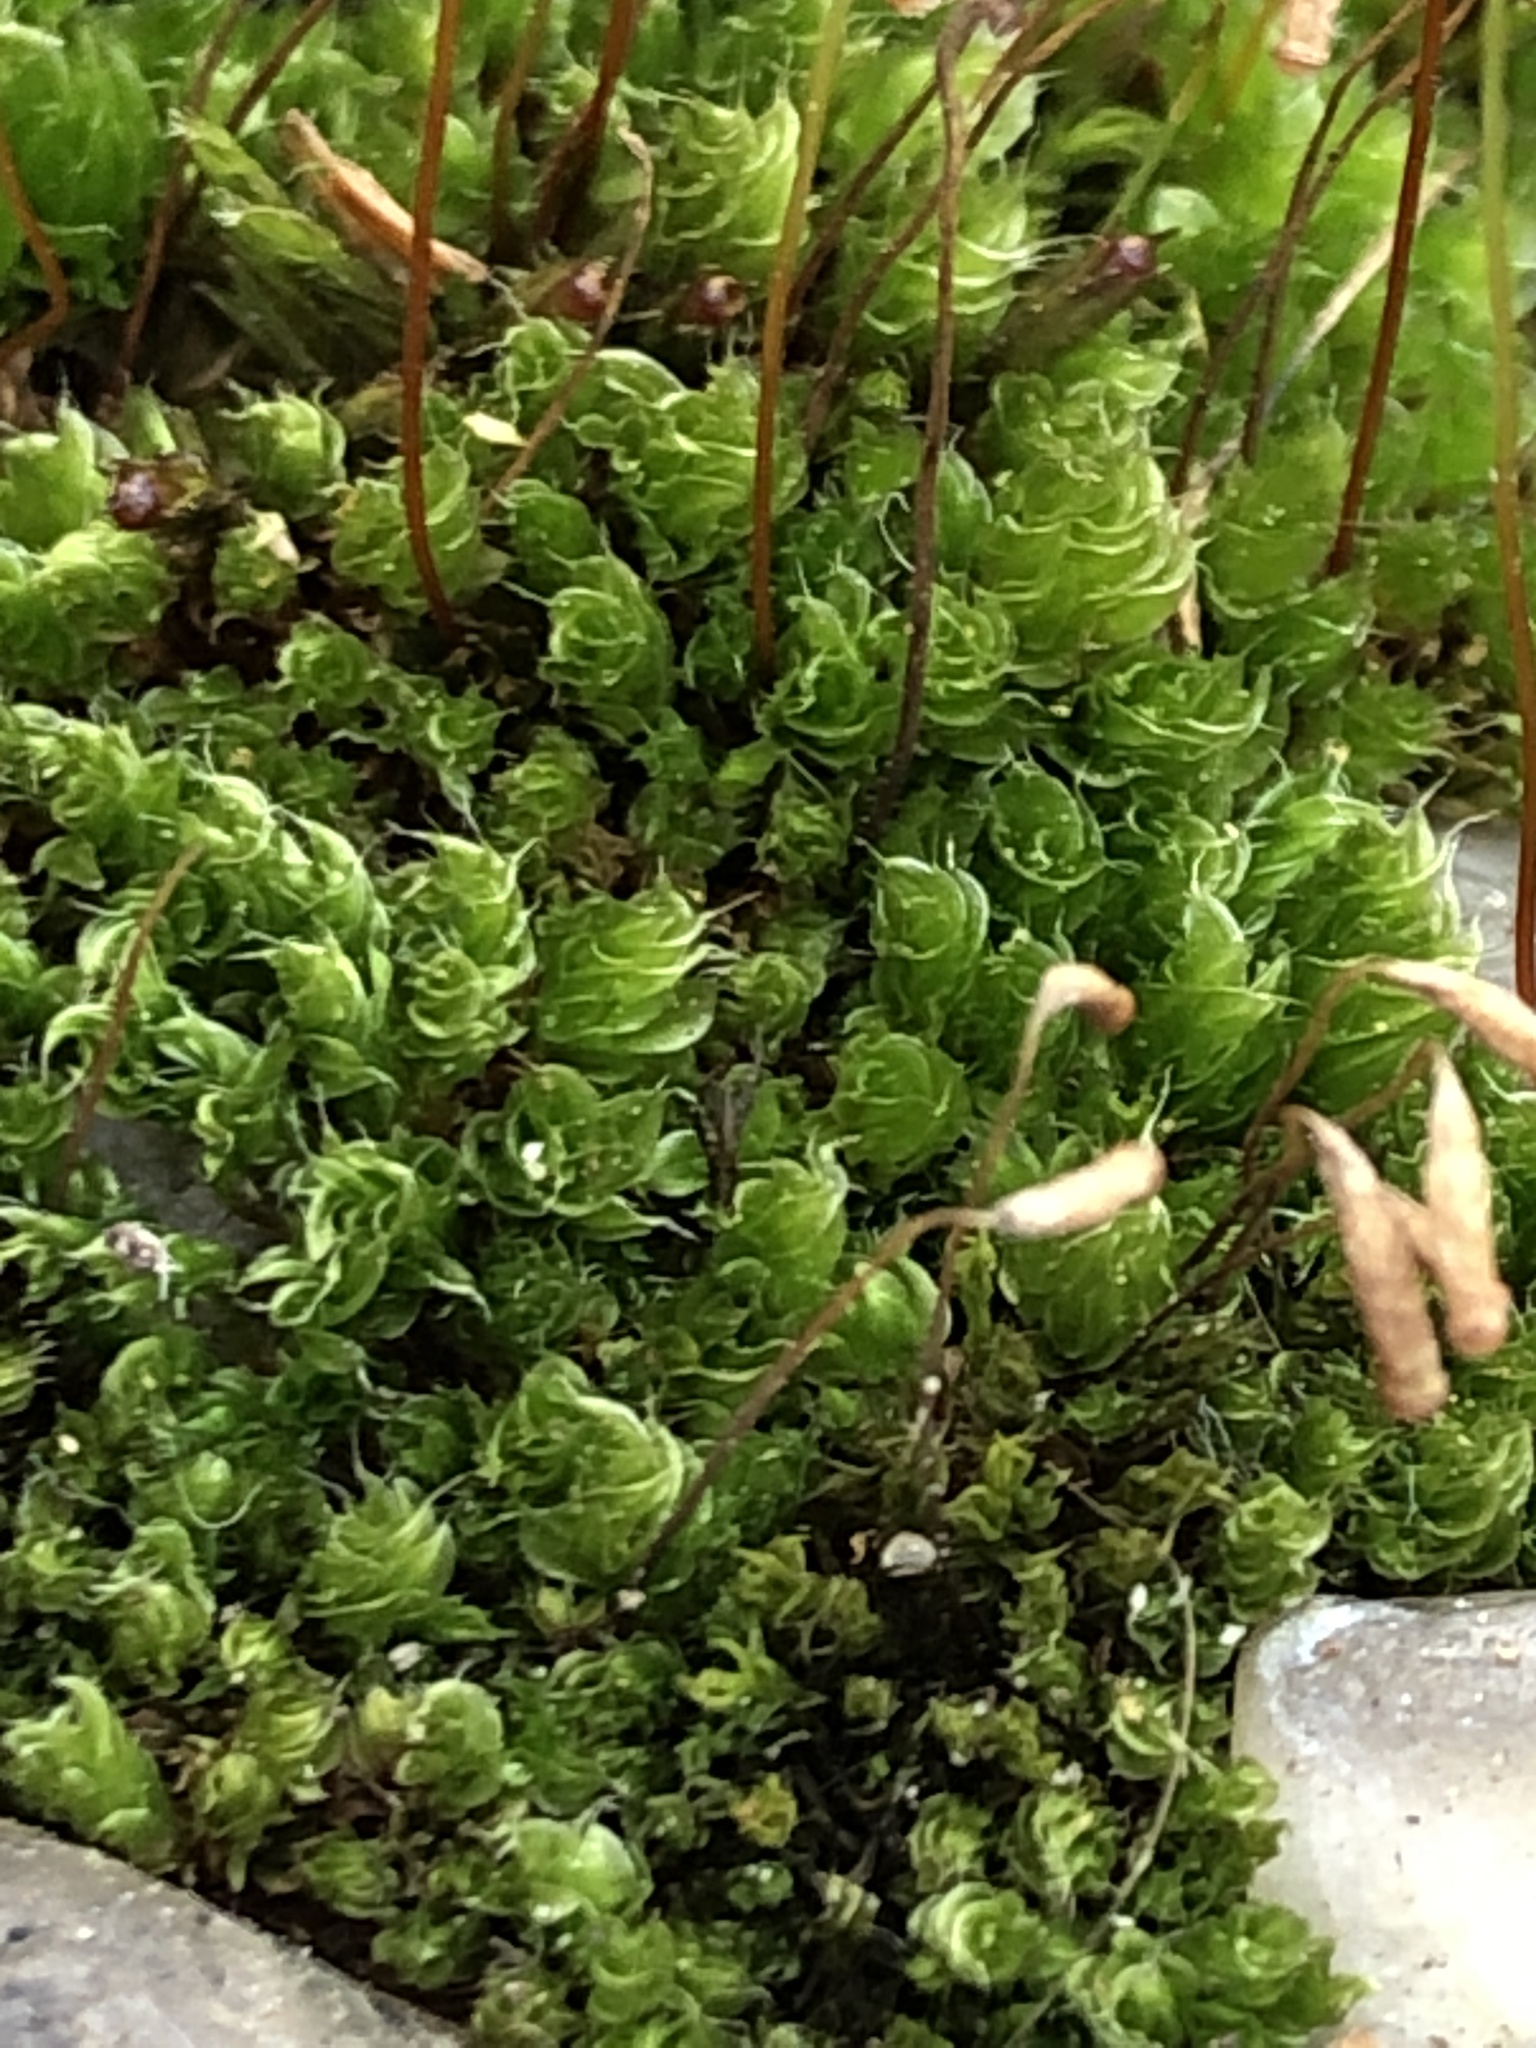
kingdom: Plantae
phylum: Bryophyta
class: Bryopsida
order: Bryales
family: Bryaceae
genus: Rosulabryum
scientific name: Rosulabryum capillare
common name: Capillary thread-moss
